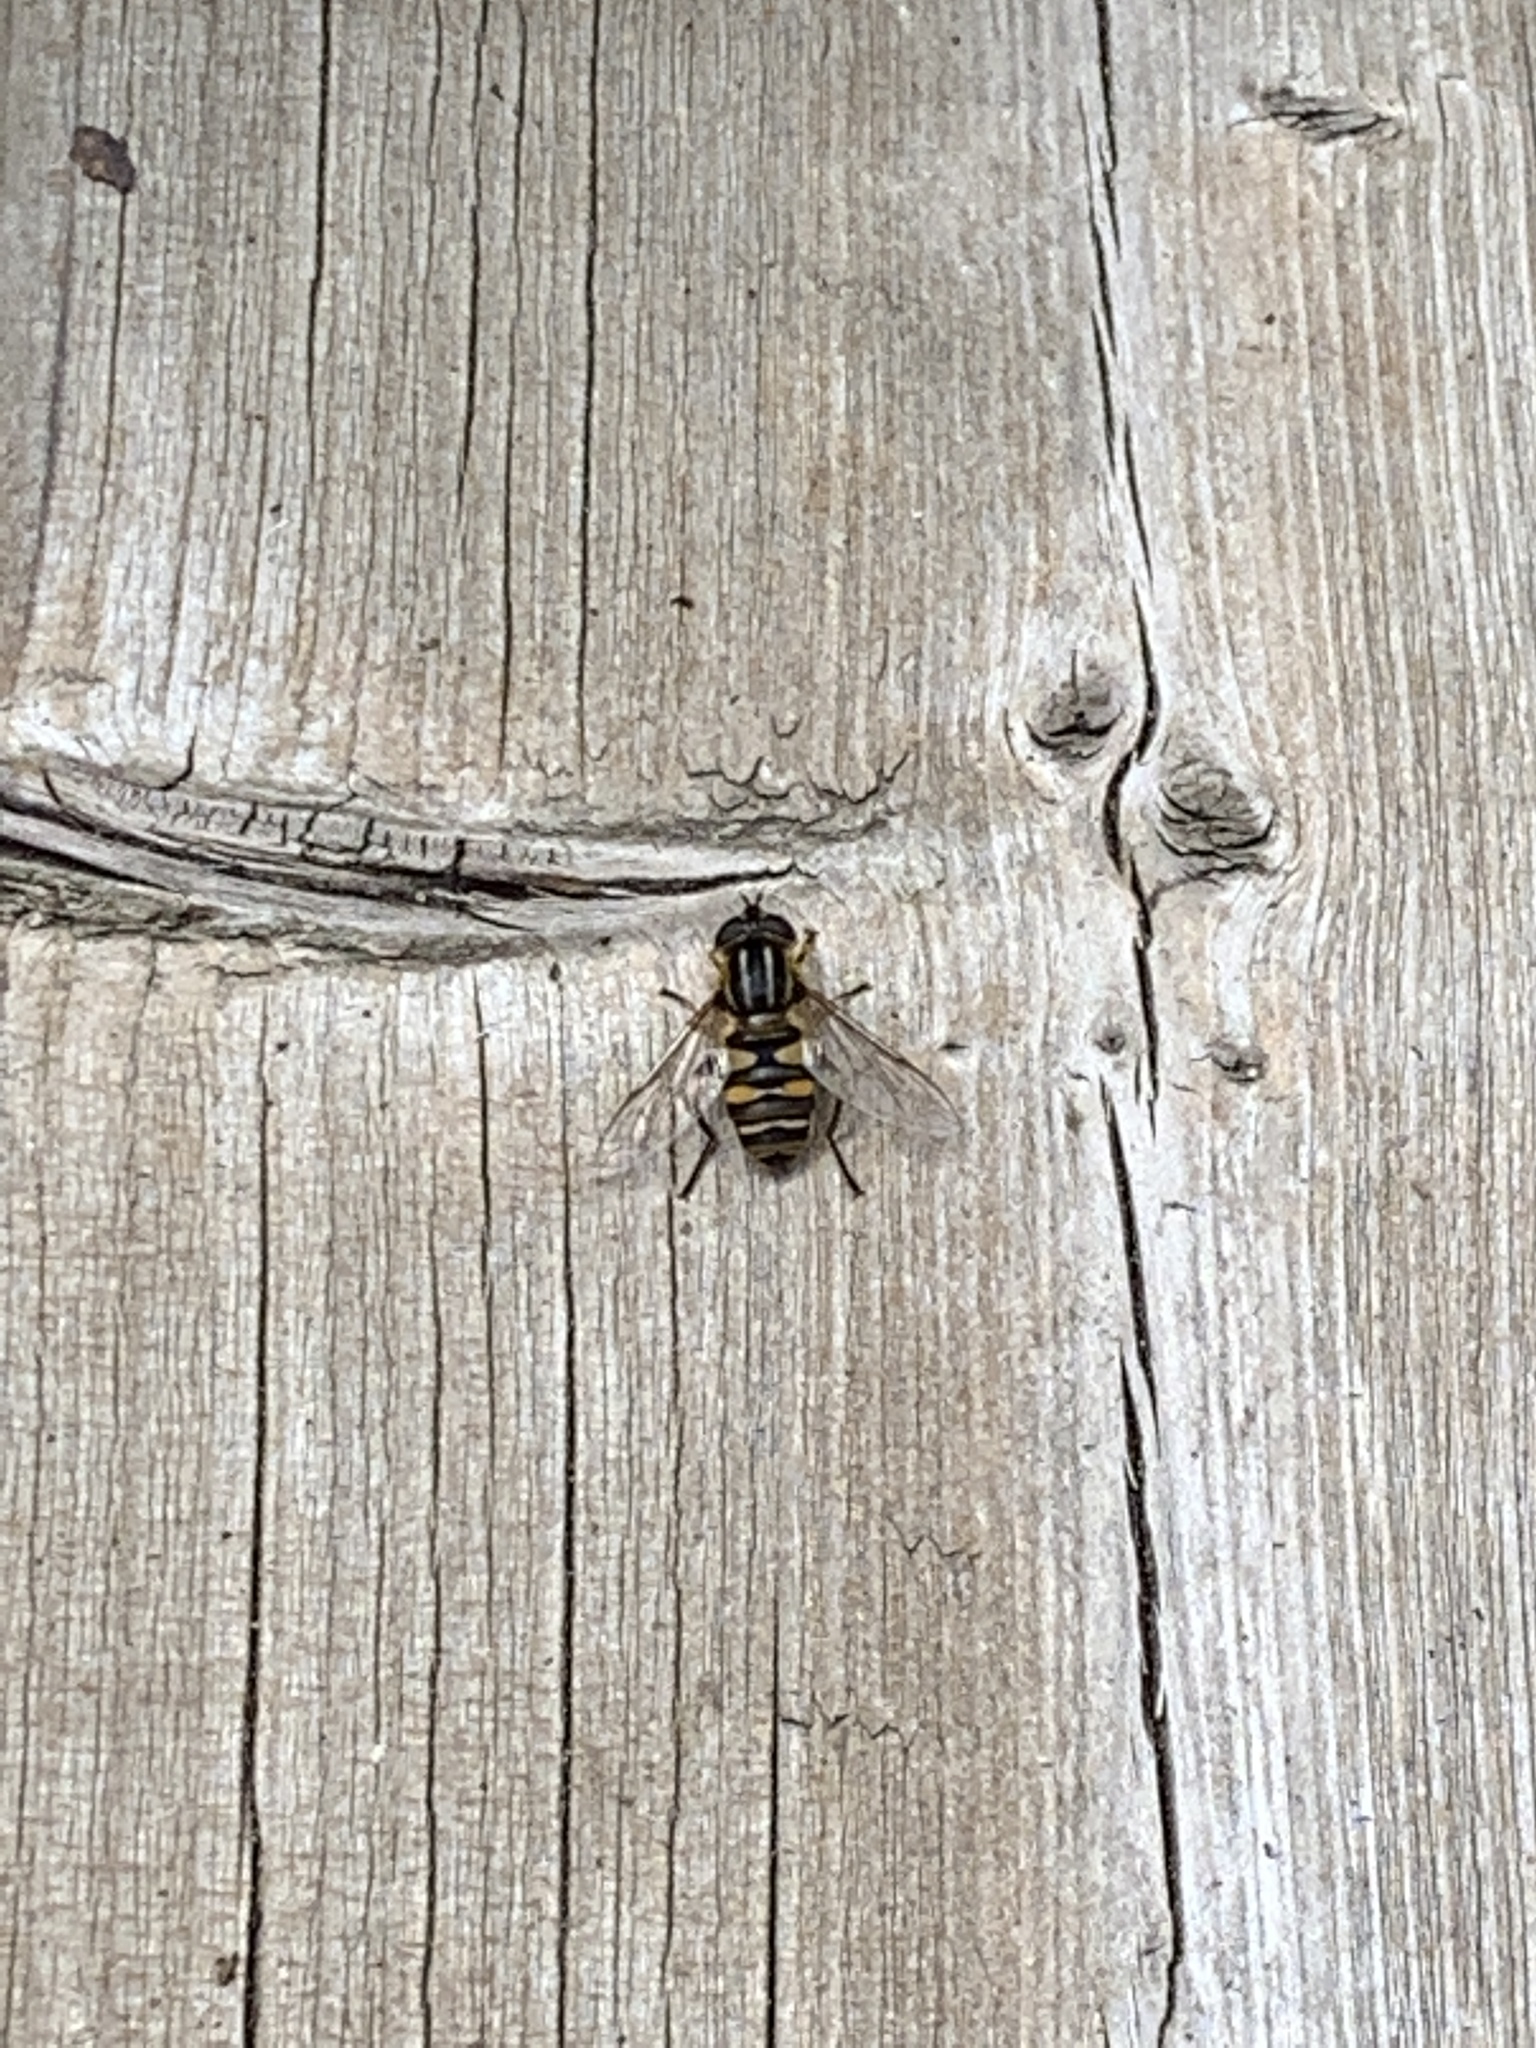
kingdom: Animalia
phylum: Arthropoda
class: Insecta
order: Diptera
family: Syrphidae
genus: Helophilus
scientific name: Helophilus fasciatus
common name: Narrow-headed marsh fly
